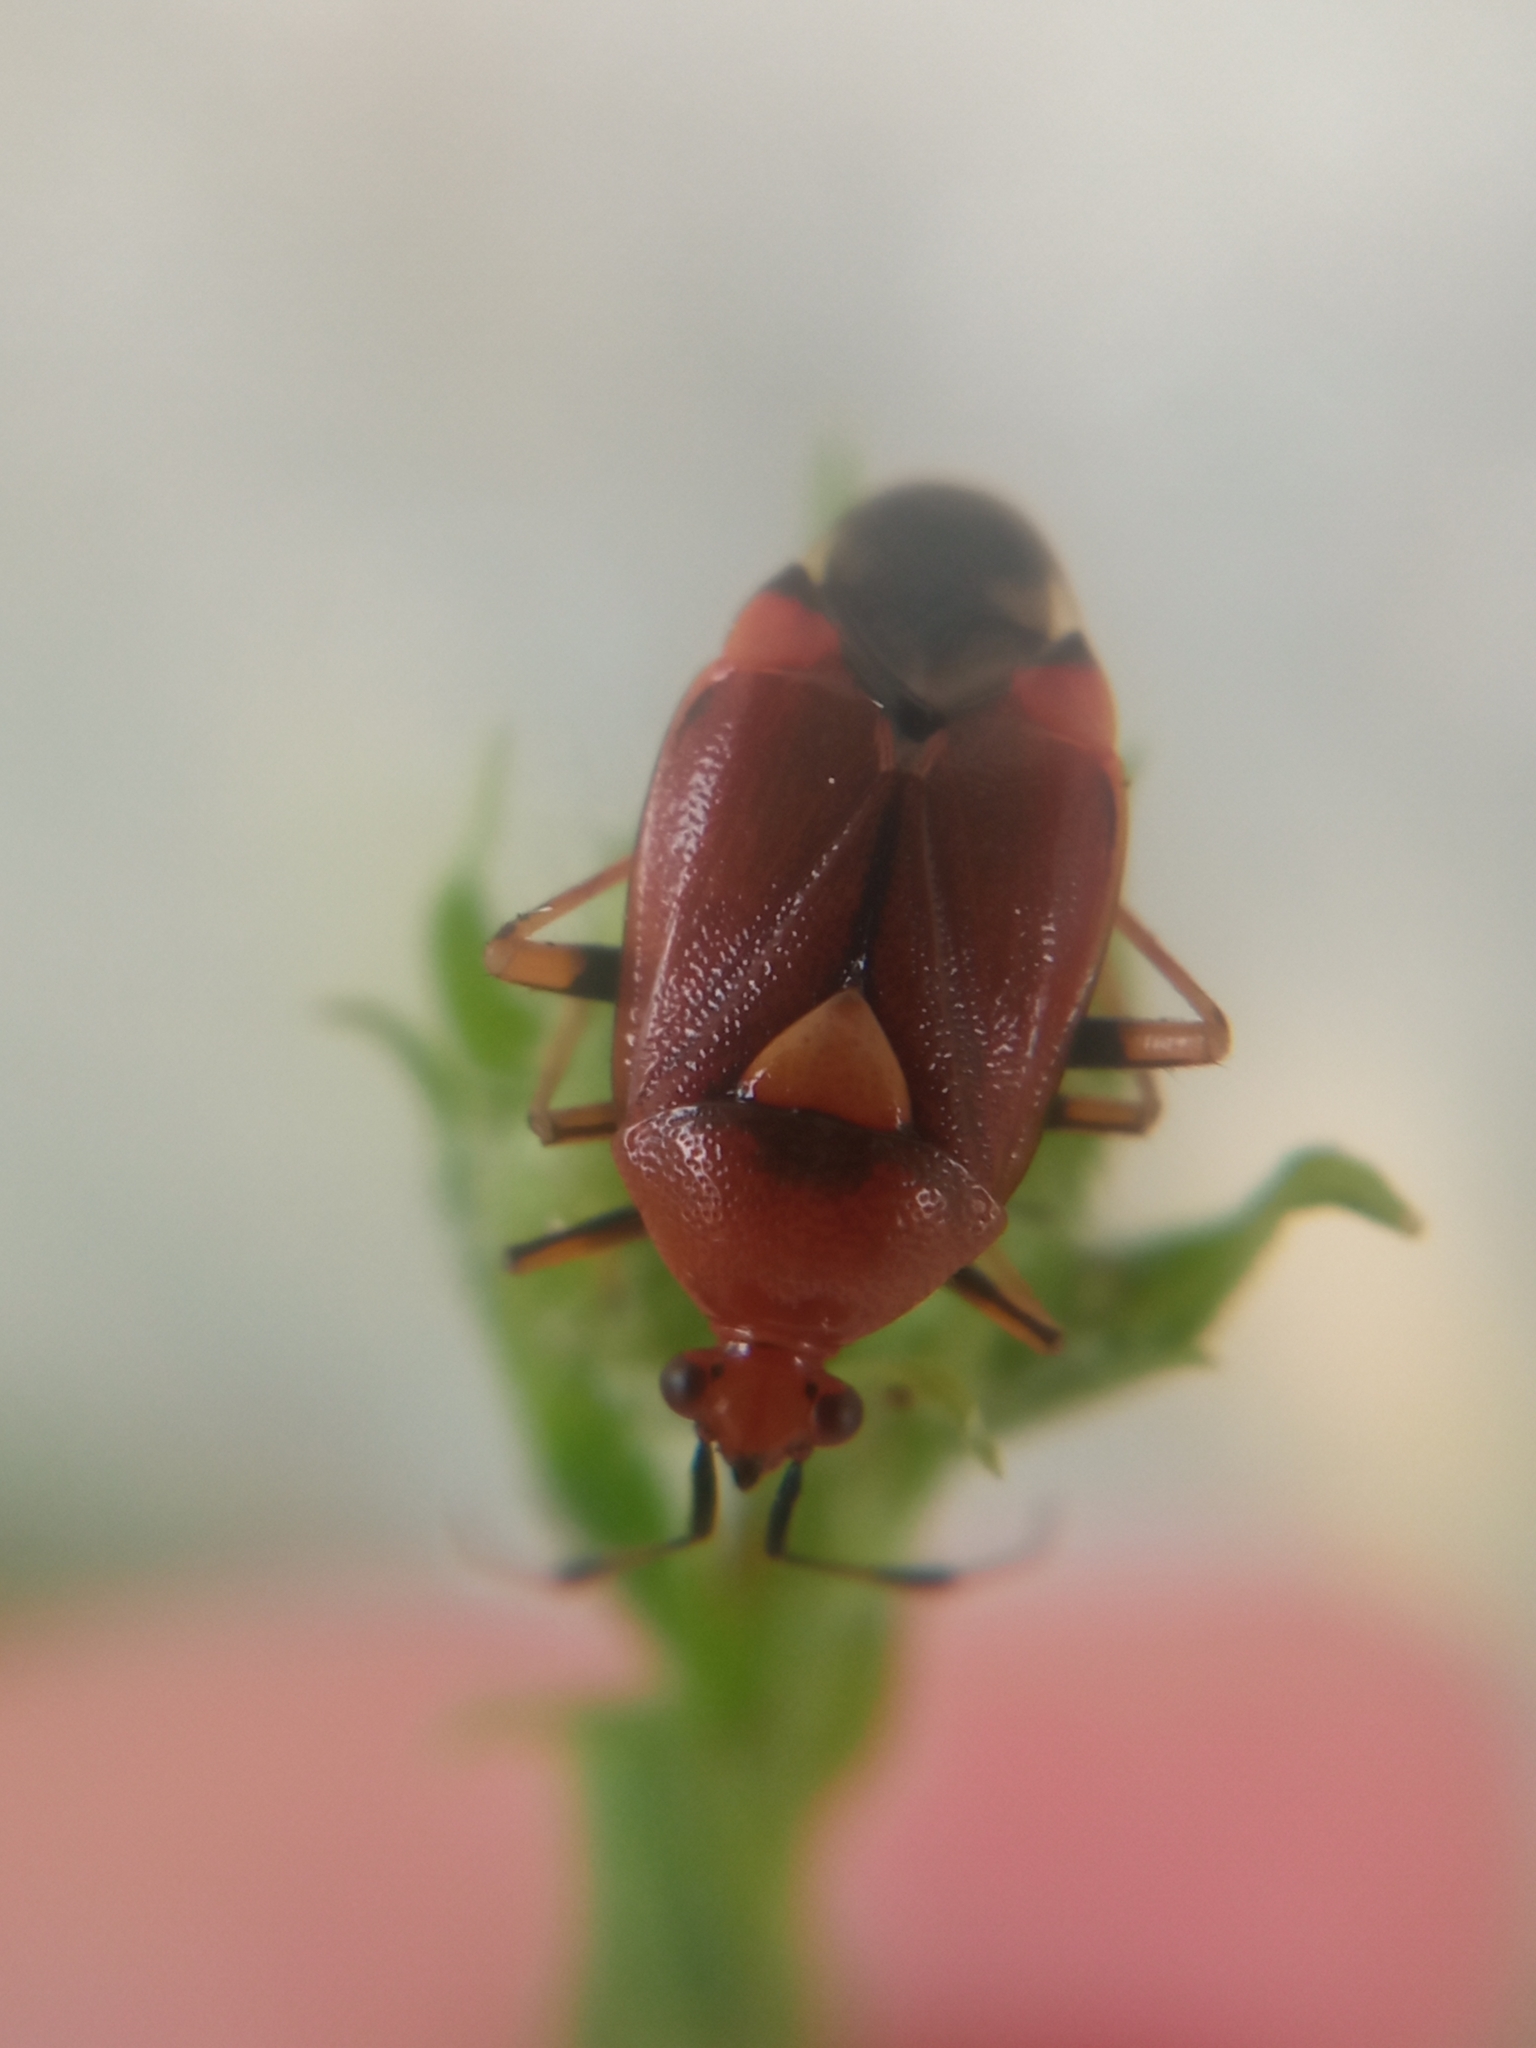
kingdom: Animalia
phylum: Arthropoda
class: Insecta
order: Hemiptera
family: Miridae
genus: Deraeocoris
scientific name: Deraeocoris ruber
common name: Plant bug
